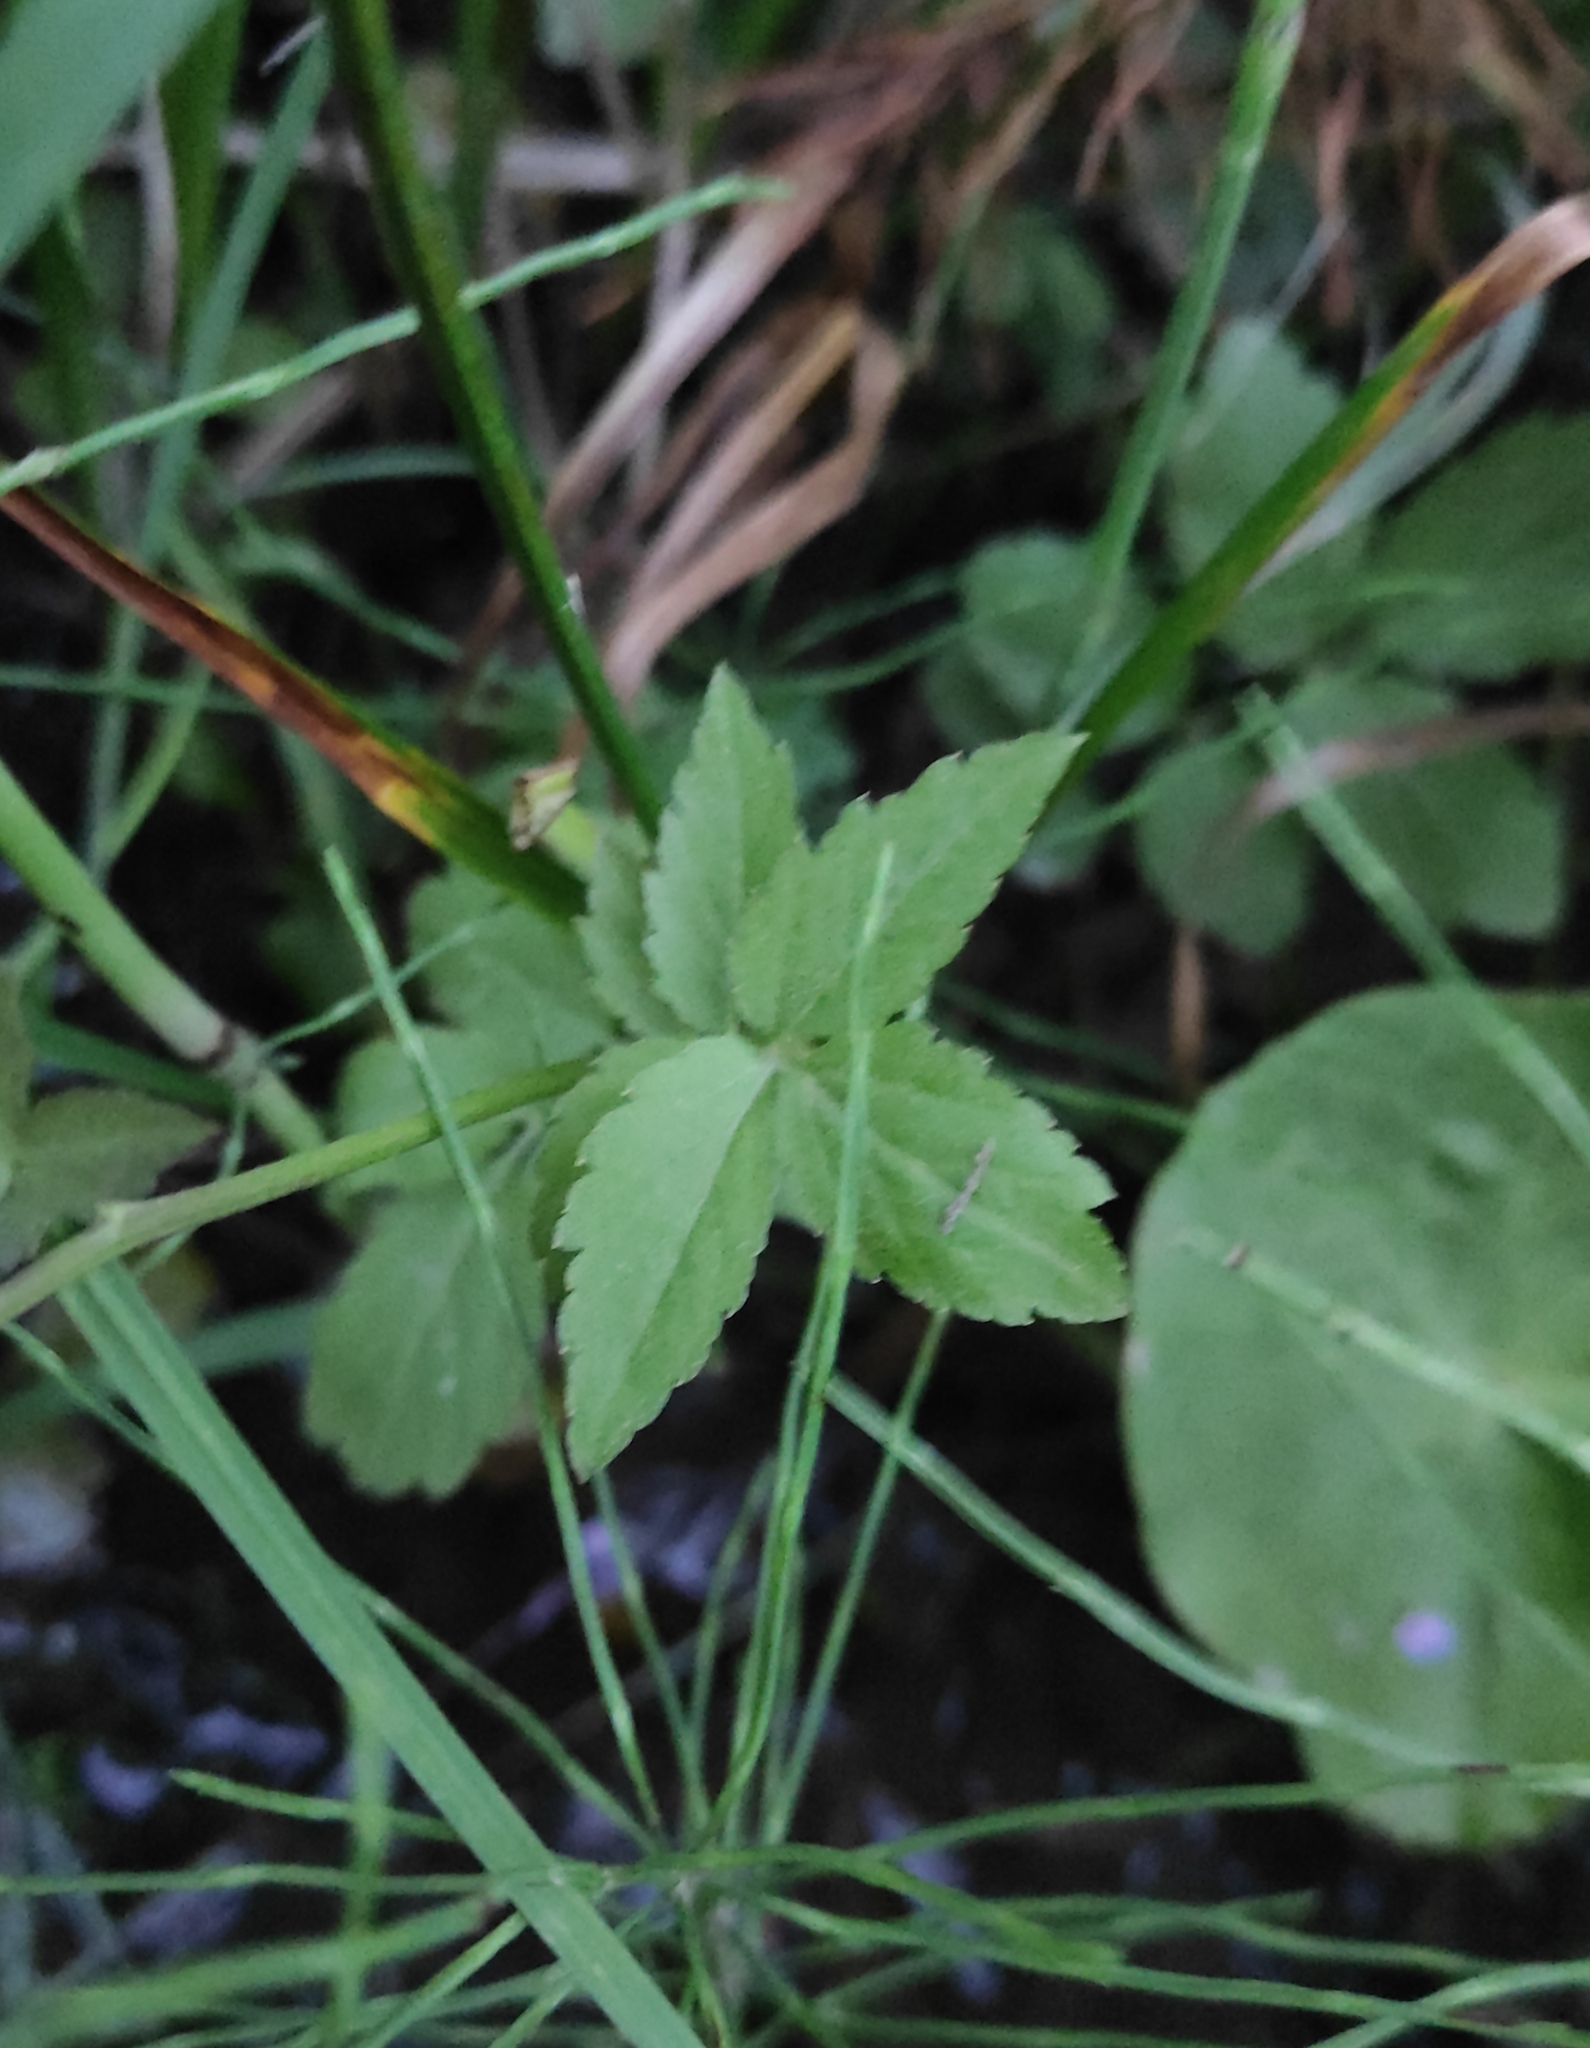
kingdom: Plantae
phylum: Tracheophyta
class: Magnoliopsida
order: Brassicales
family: Brassicaceae
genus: Cardamine
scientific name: Cardamine macrophylla
